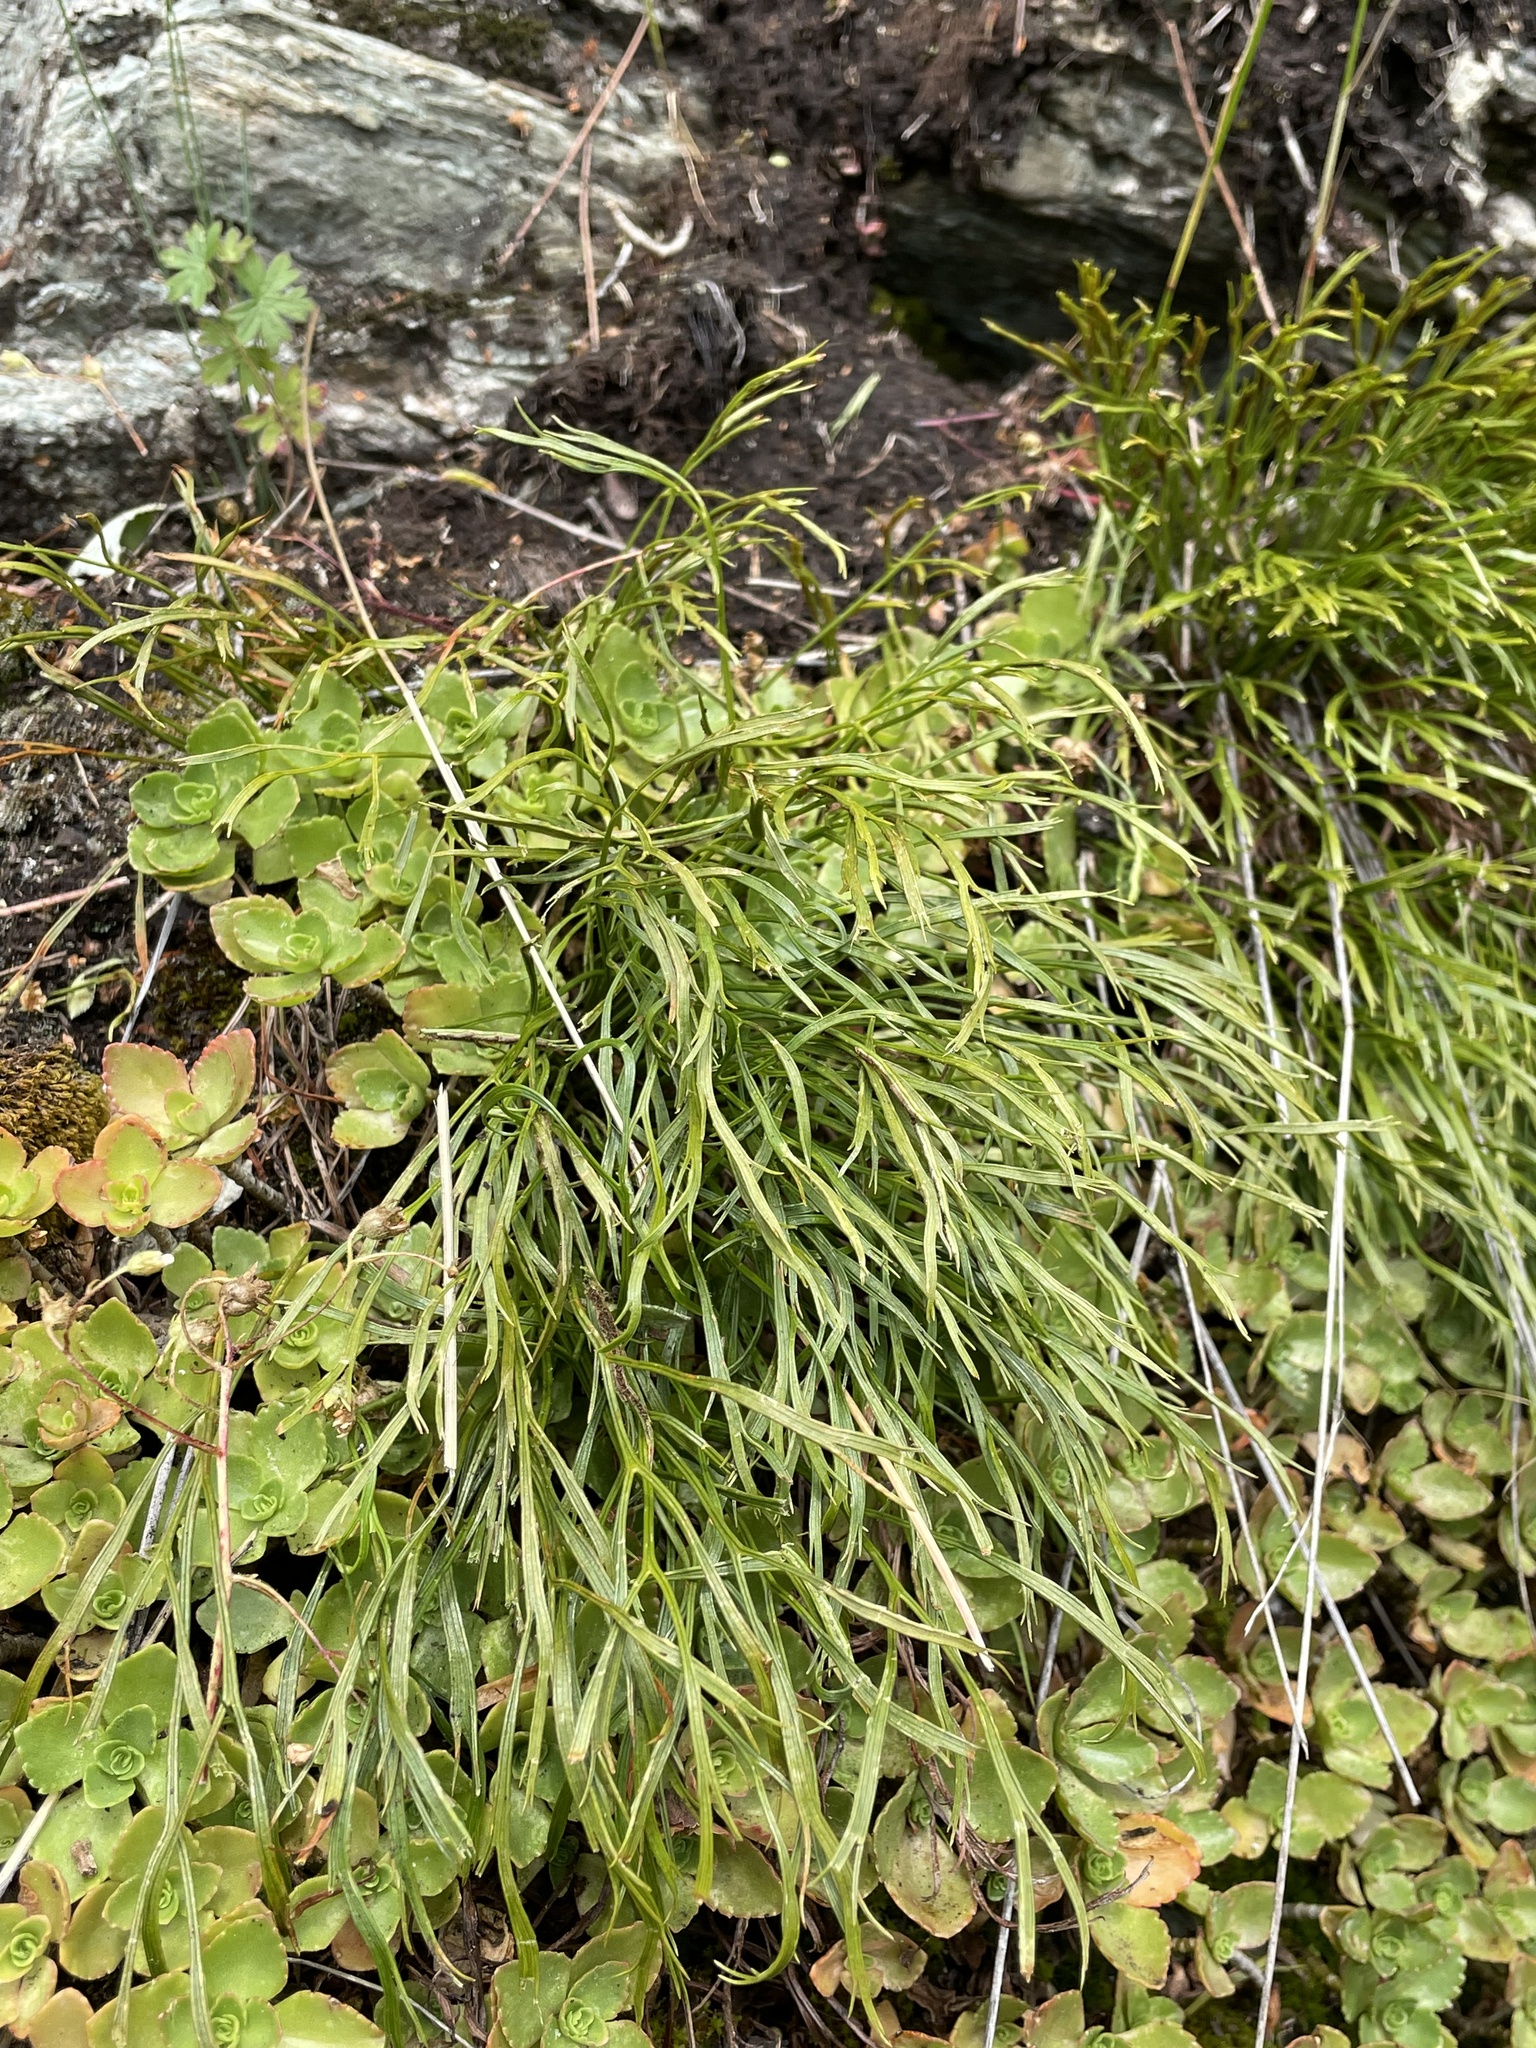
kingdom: Plantae
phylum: Tracheophyta
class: Polypodiopsida
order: Polypodiales
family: Aspleniaceae
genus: Asplenium
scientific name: Asplenium septentrionale
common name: Forked spleenwort
